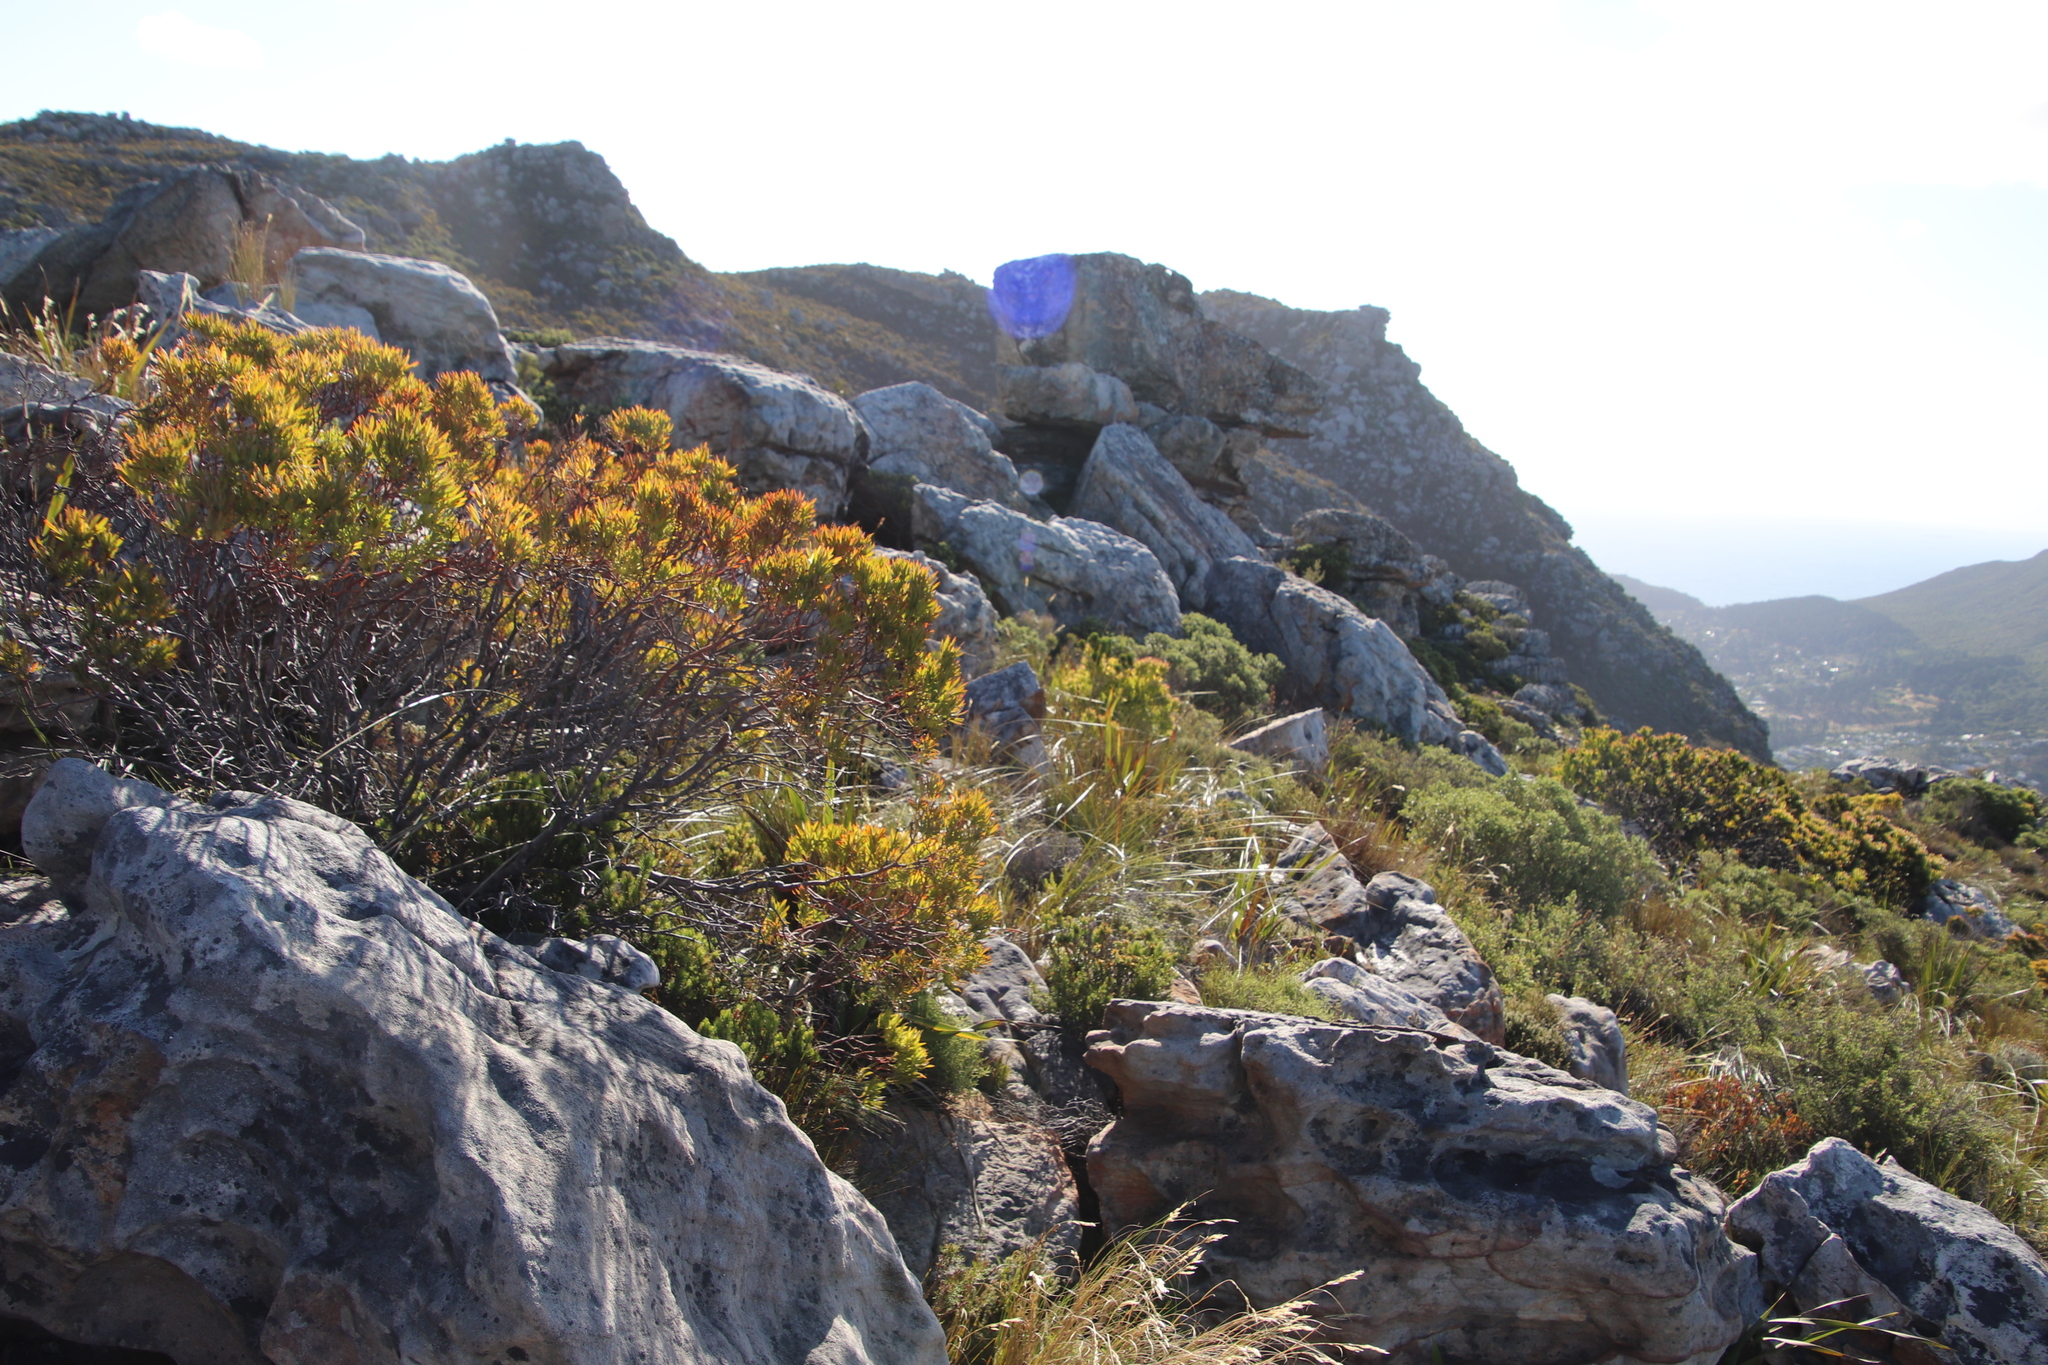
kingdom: Plantae
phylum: Tracheophyta
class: Magnoliopsida
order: Proteales
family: Proteaceae
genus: Leucadendron
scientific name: Leucadendron xanthoconus
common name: Sickle-leaf conebush
